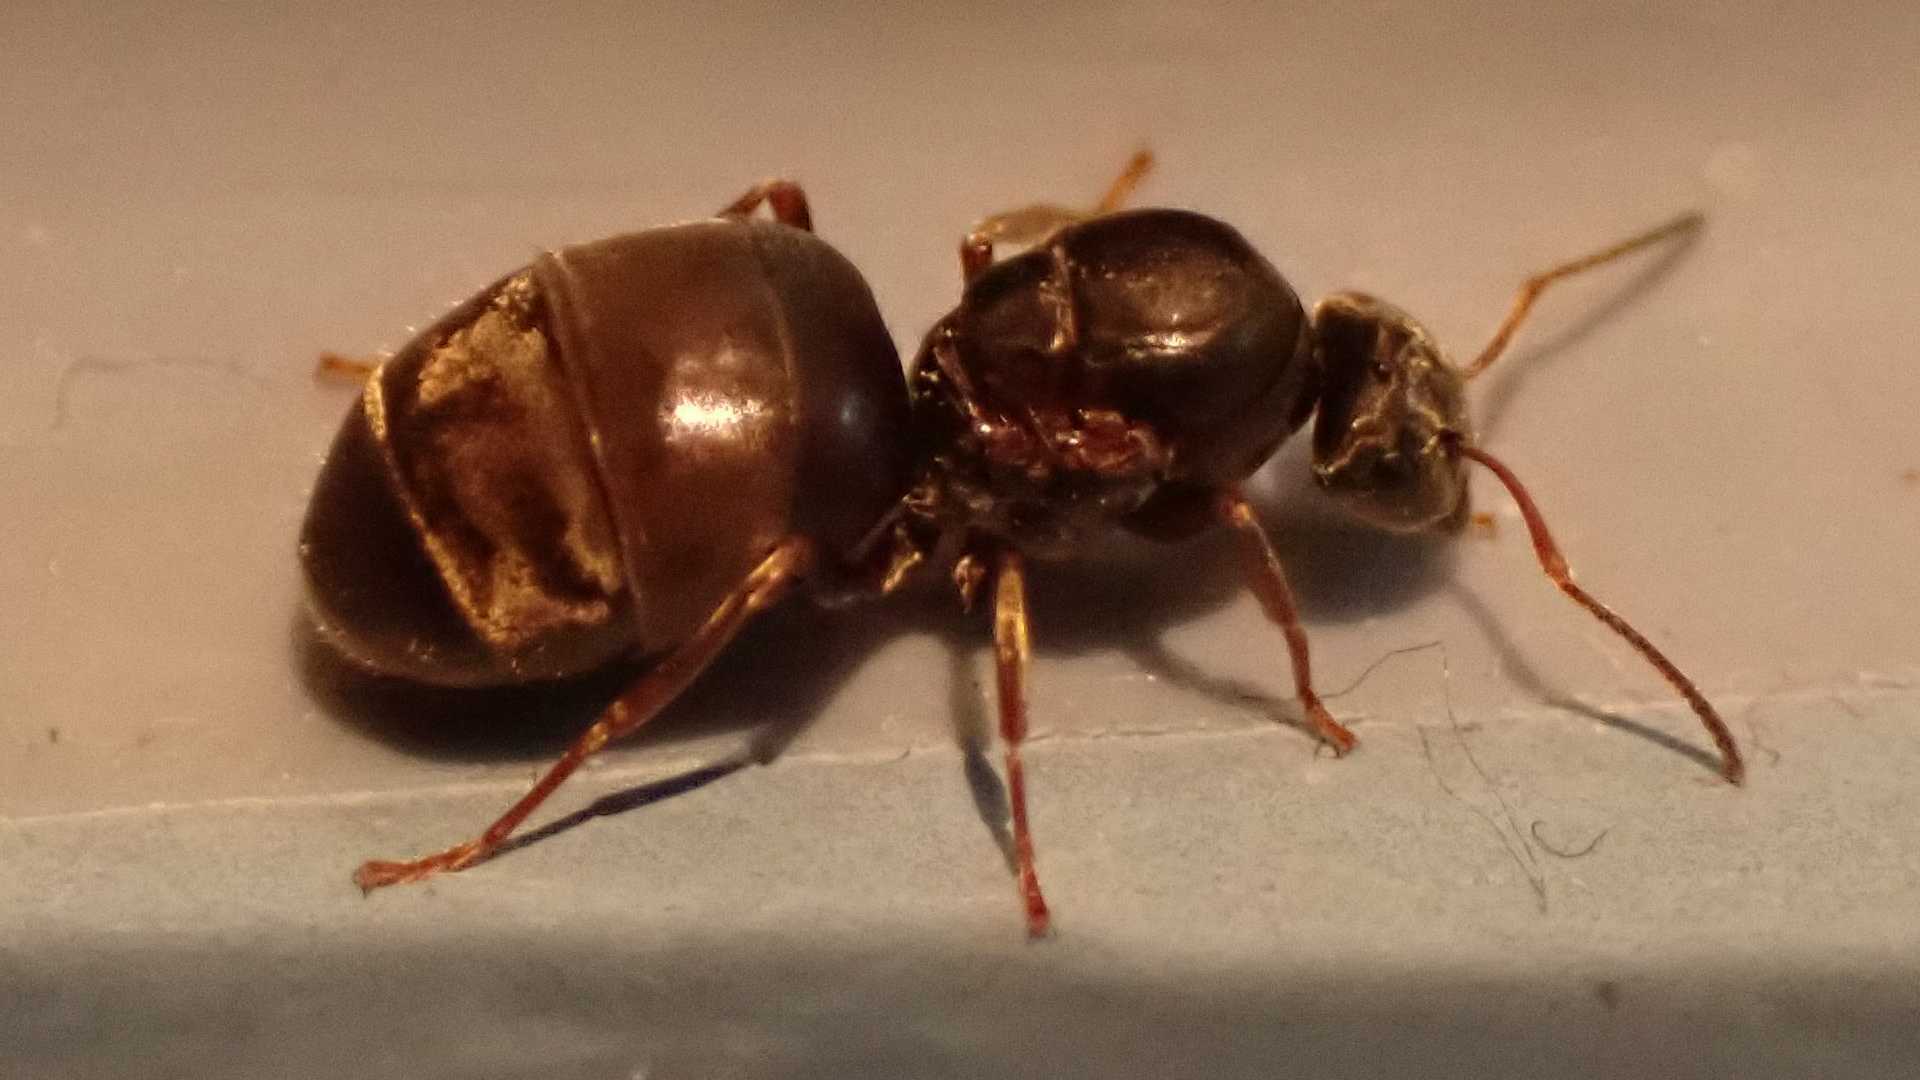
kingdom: Animalia
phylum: Arthropoda
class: Insecta
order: Hymenoptera
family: Formicidae
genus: Lasius
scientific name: Lasius
